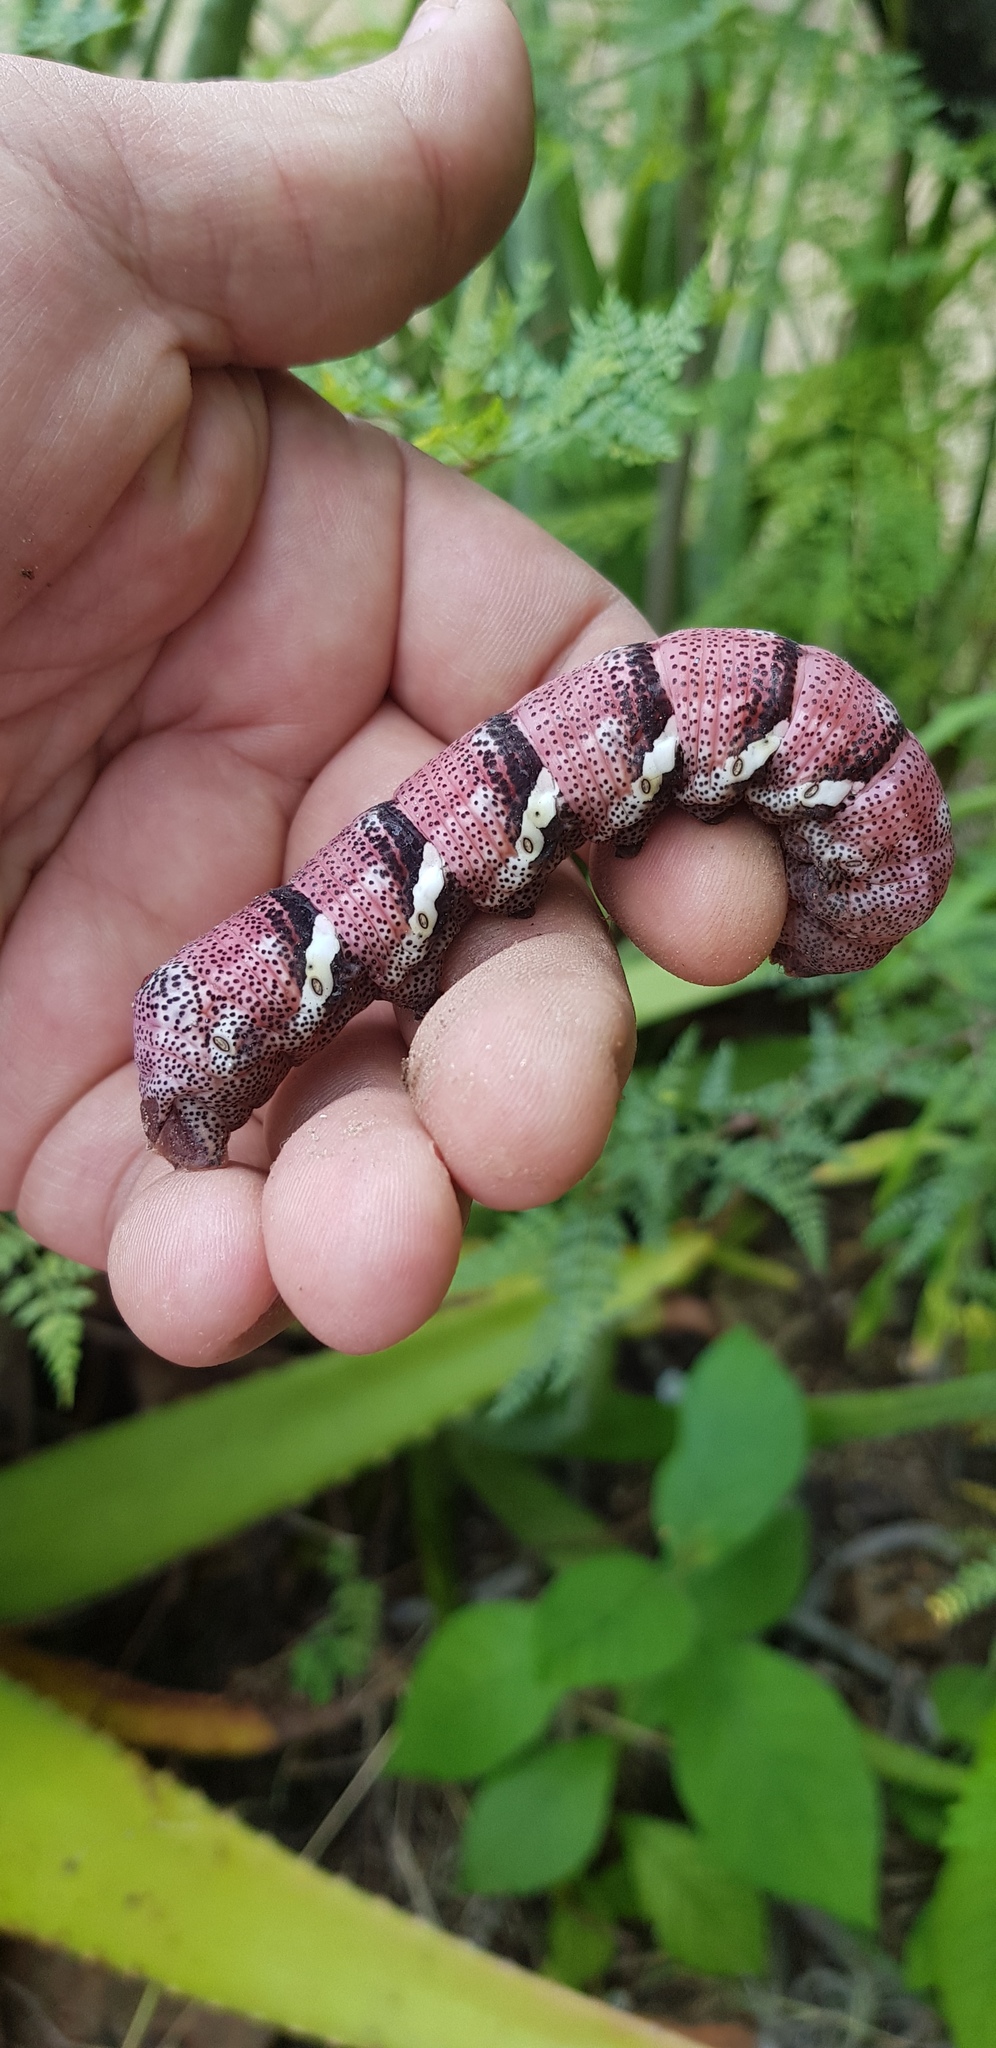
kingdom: Animalia
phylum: Arthropoda
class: Insecta
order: Lepidoptera
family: Sphingidae
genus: Eumorpha
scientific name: Eumorpha typhon
